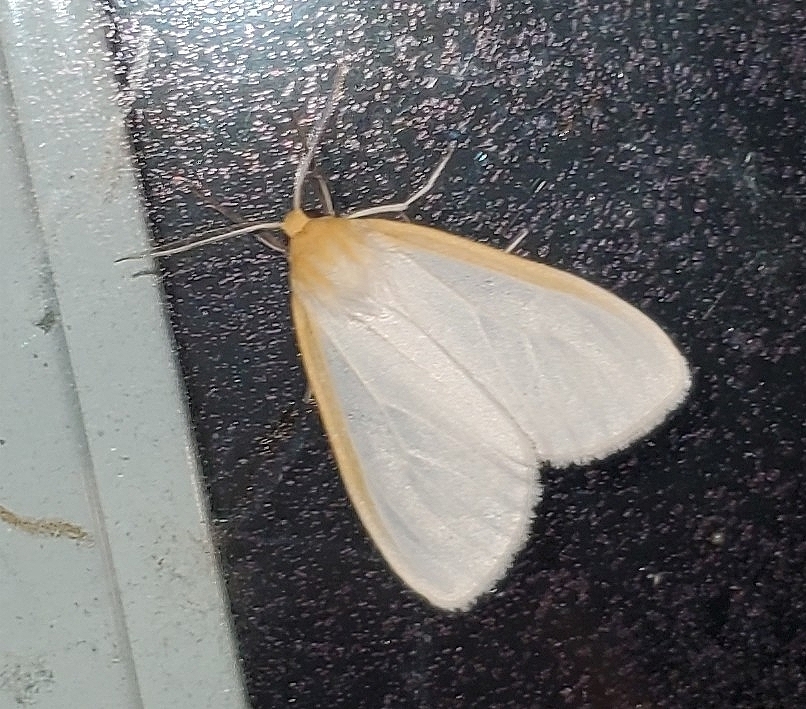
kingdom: Animalia
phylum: Arthropoda
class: Insecta
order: Lepidoptera
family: Erebidae
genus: Cycnia
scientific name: Cycnia tenera
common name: Delicate cycnia moth
